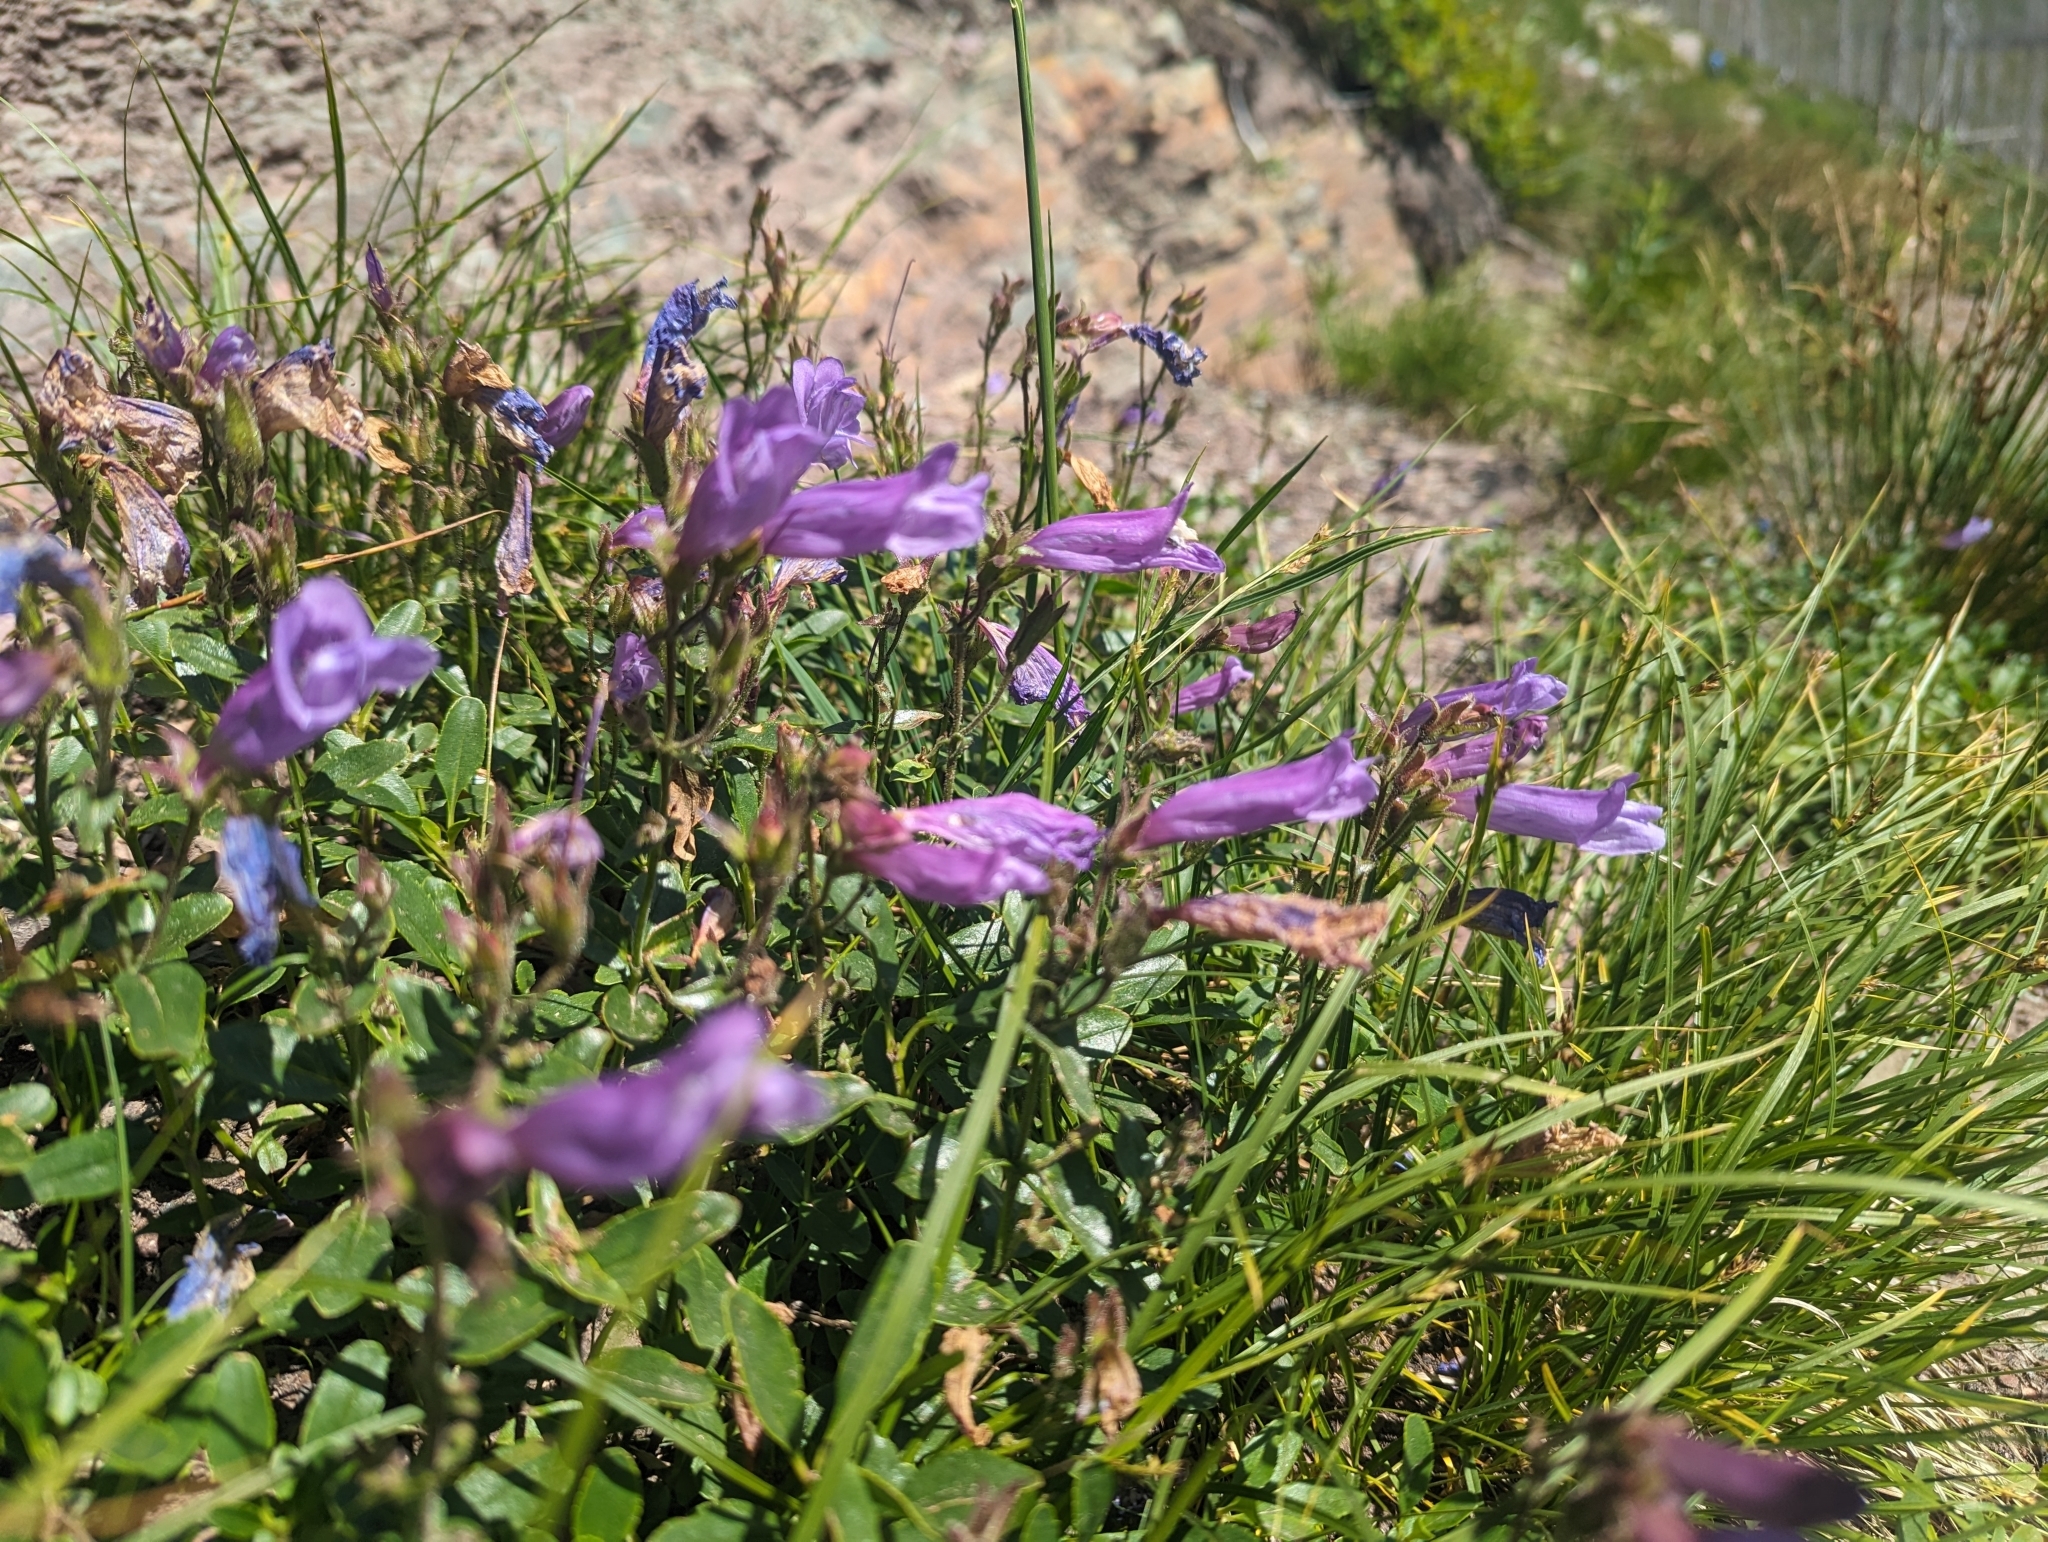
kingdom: Plantae
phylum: Tracheophyta
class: Magnoliopsida
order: Lamiales
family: Plantaginaceae
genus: Penstemon
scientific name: Penstemon ellipticus
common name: Alpine beardtongue
